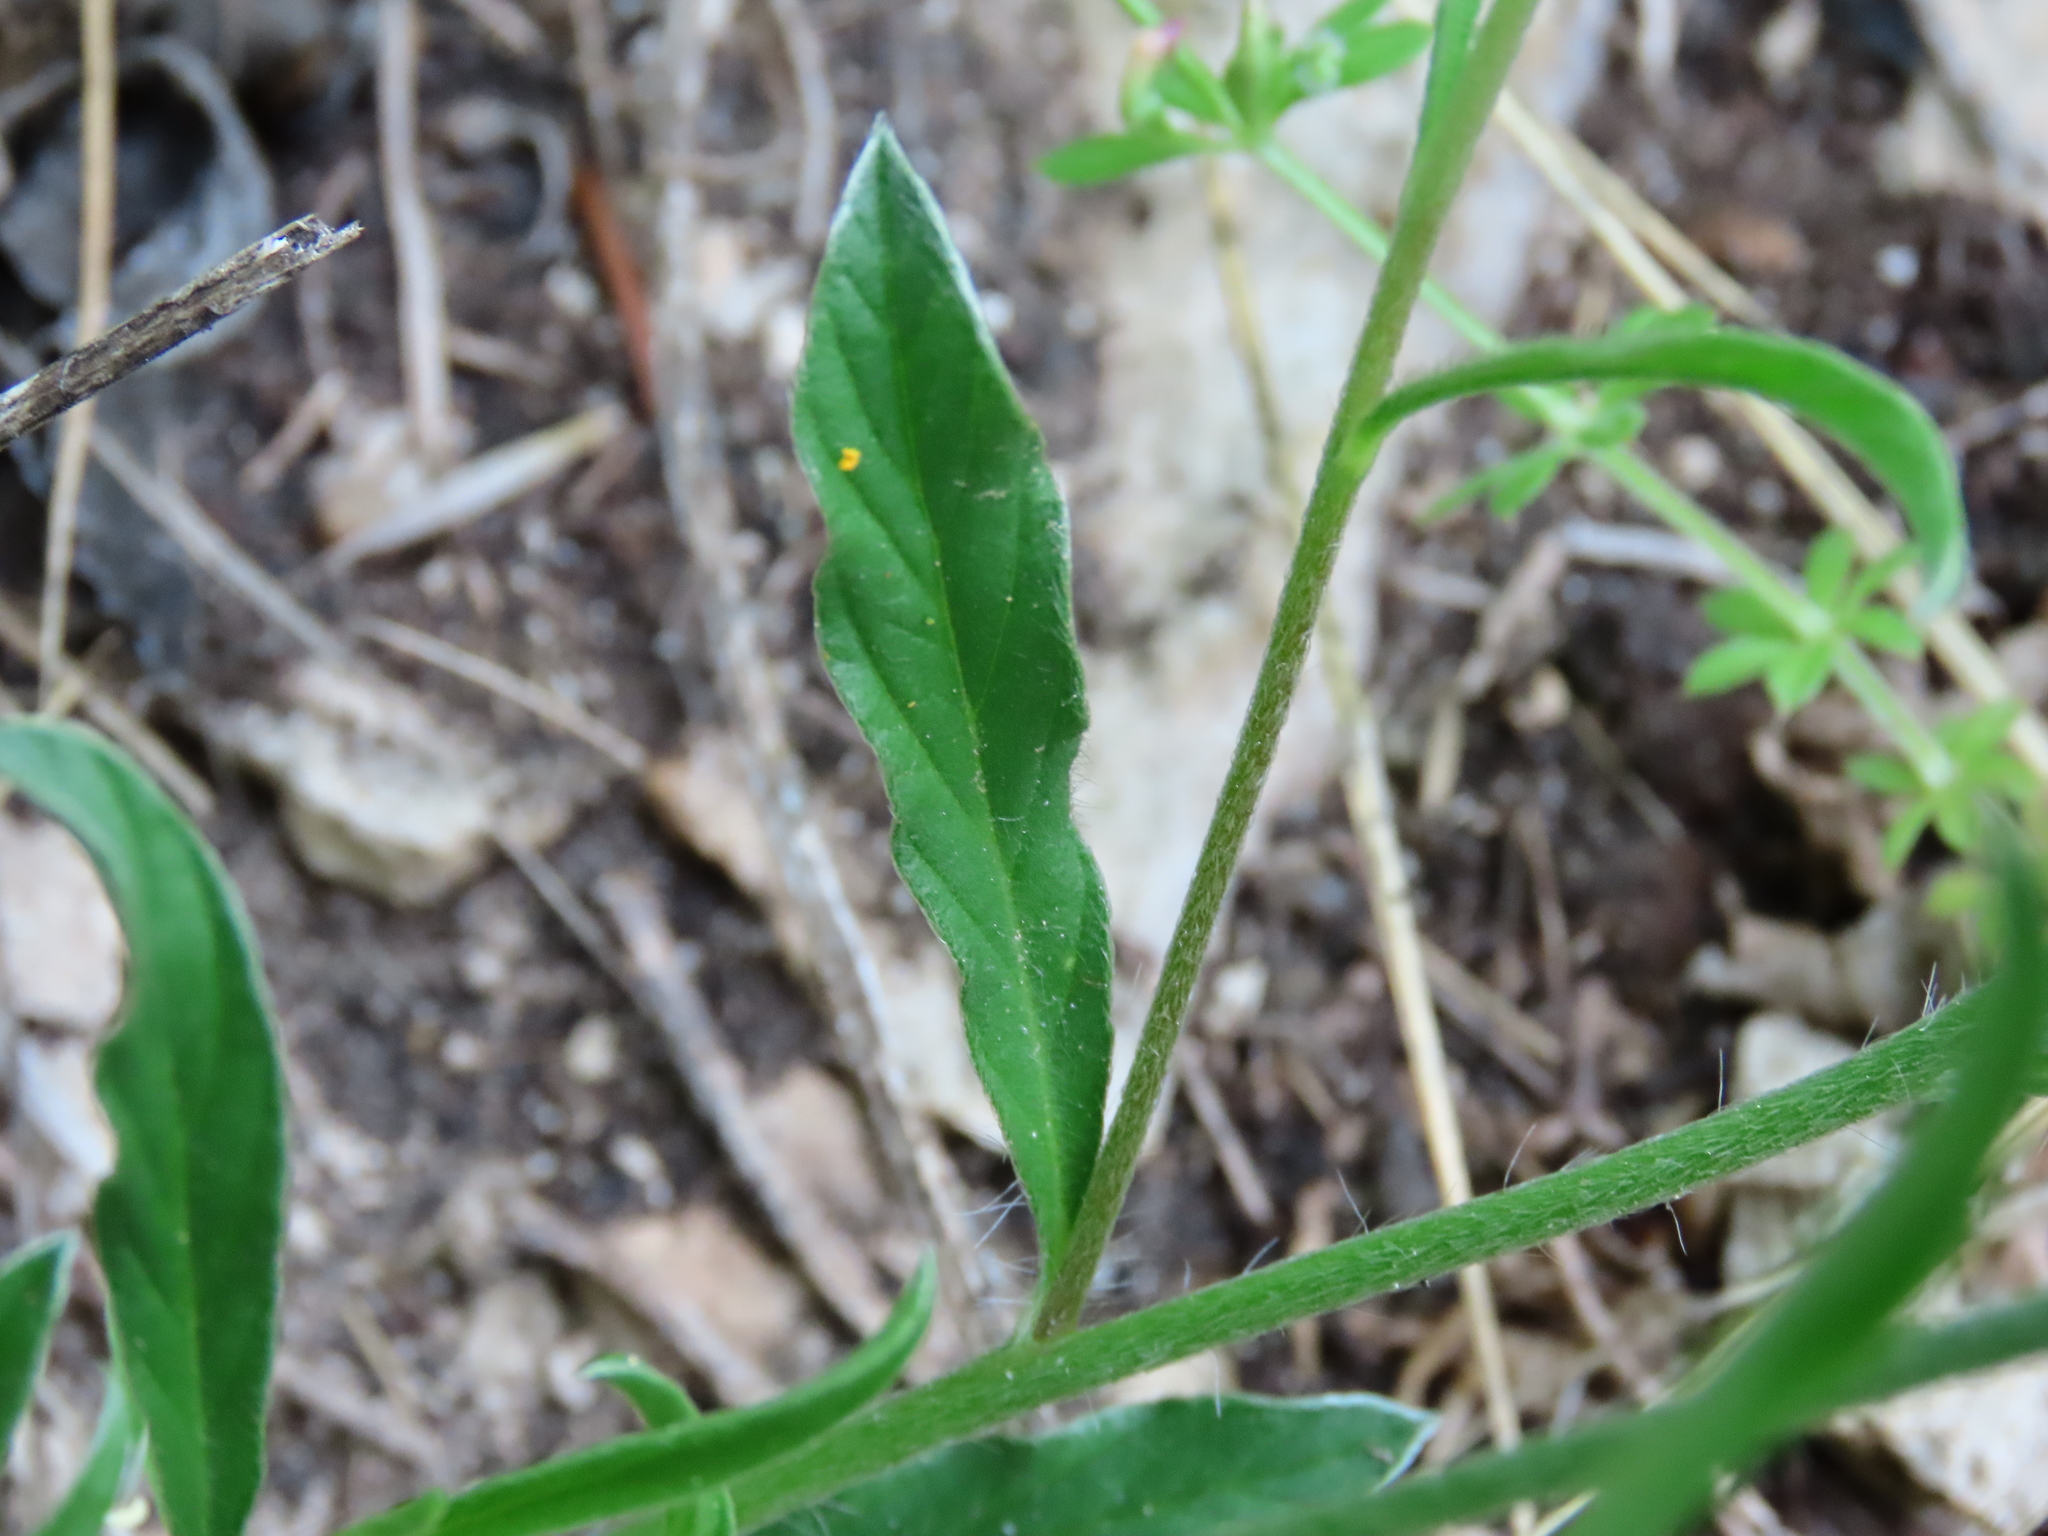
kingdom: Plantae
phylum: Tracheophyta
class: Magnoliopsida
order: Solanales
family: Convolvulaceae
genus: Convolvulus
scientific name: Convolvulus cantabrica
